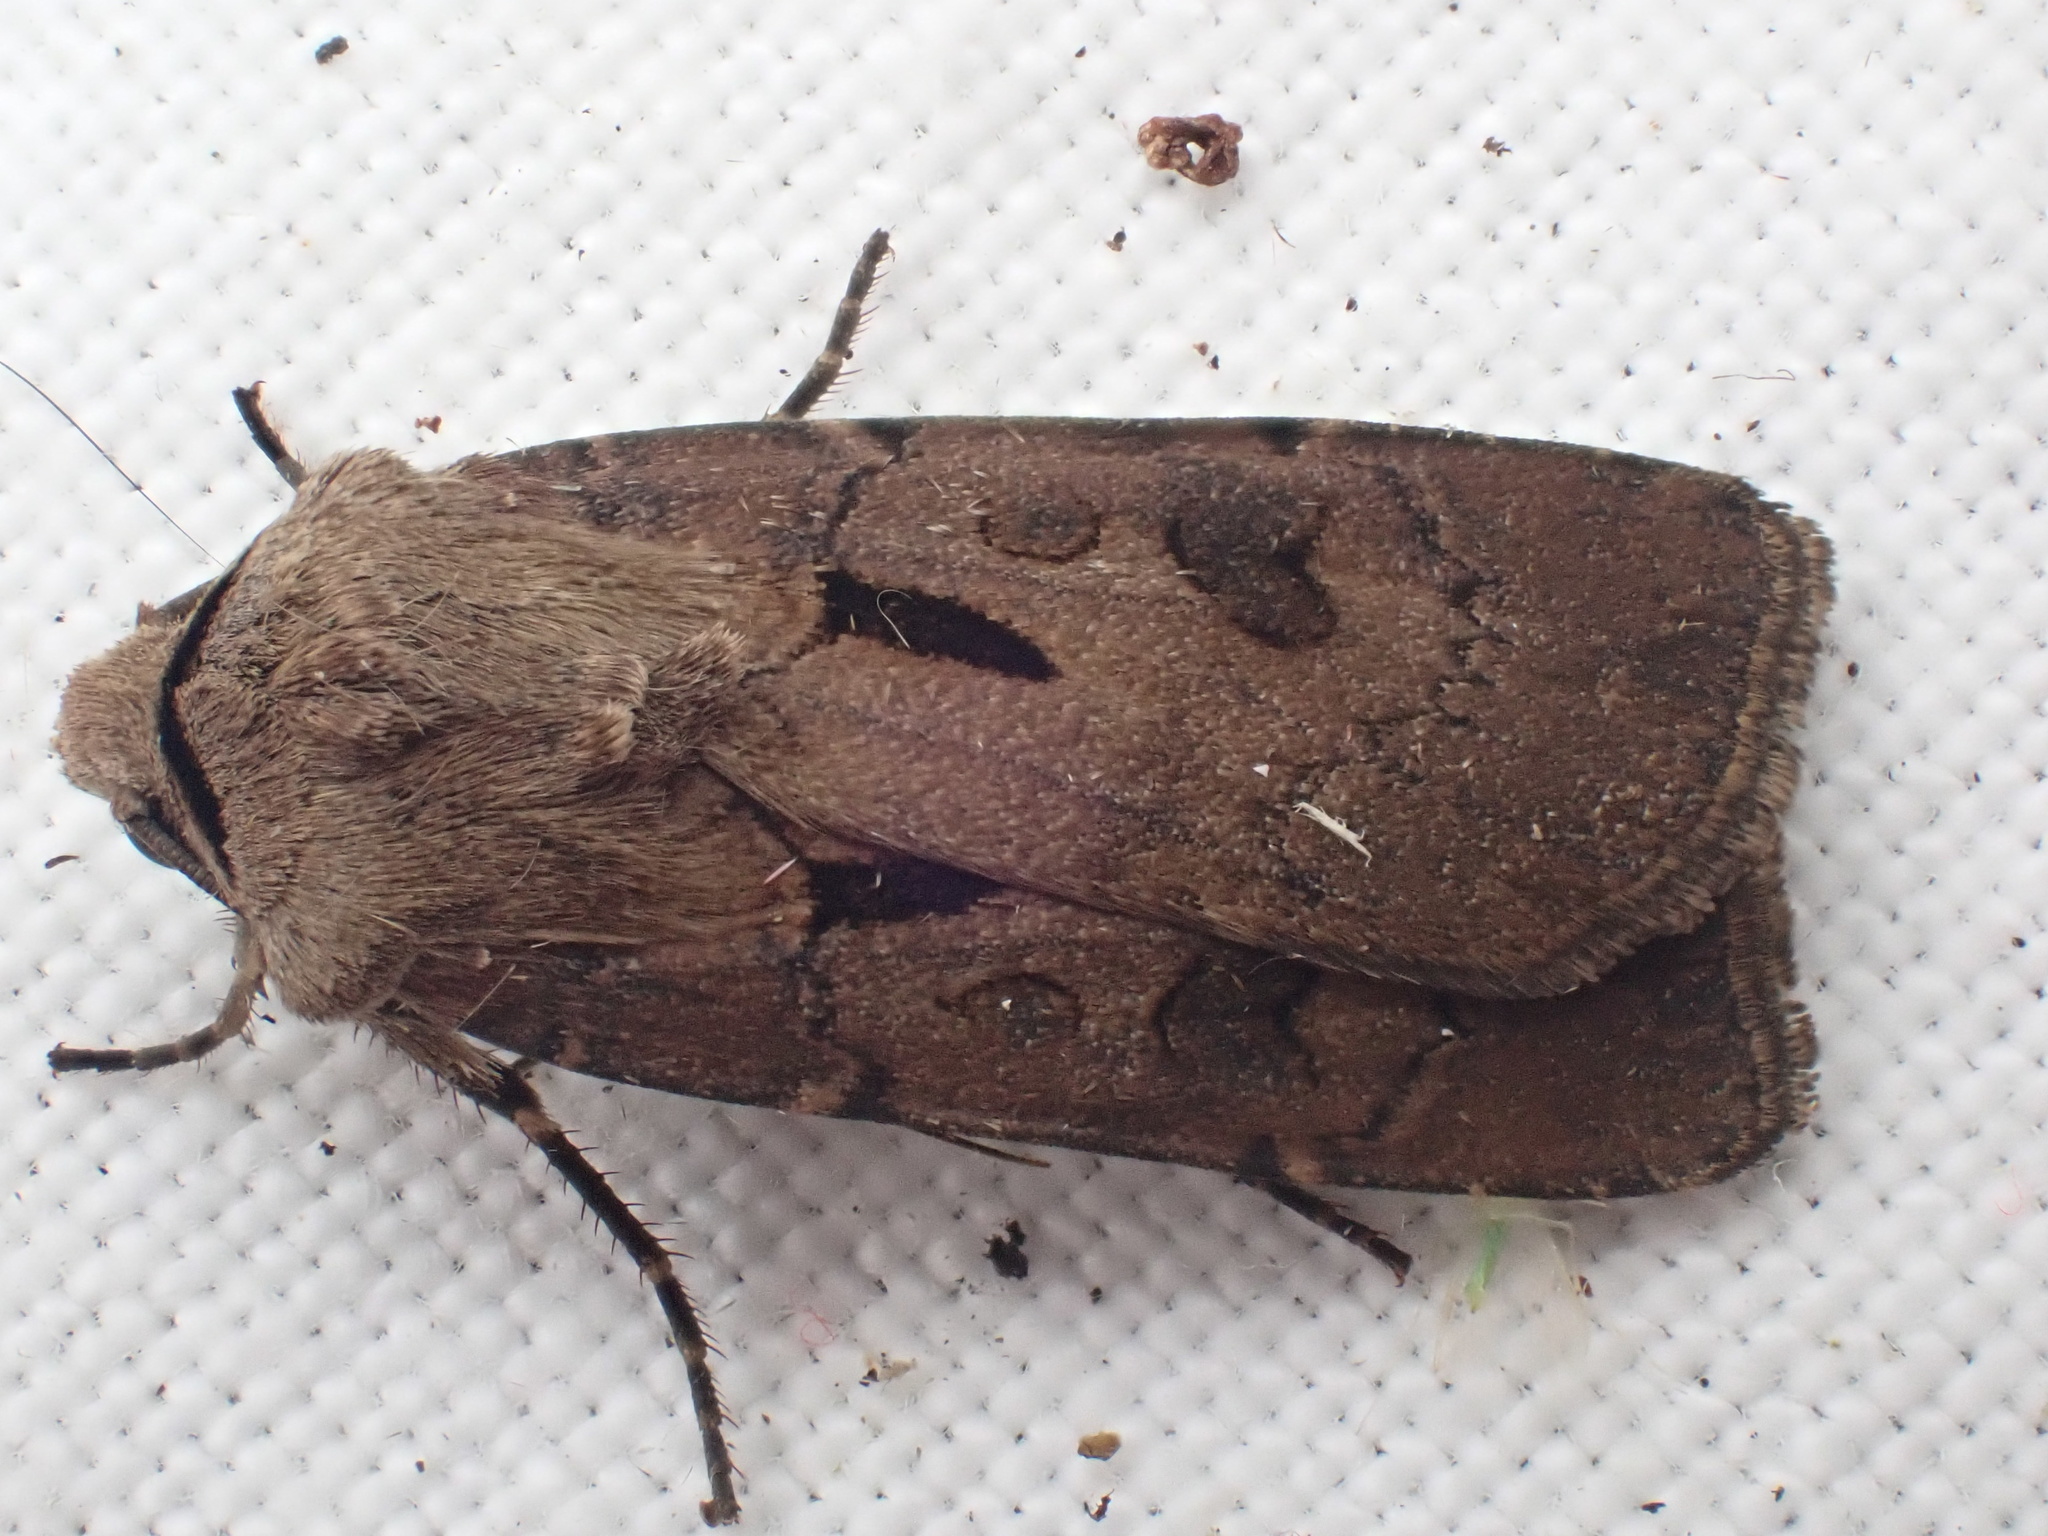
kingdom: Animalia
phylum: Arthropoda
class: Insecta
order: Lepidoptera
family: Noctuidae
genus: Agrotis
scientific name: Agrotis exclamationis
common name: Heart and dart
